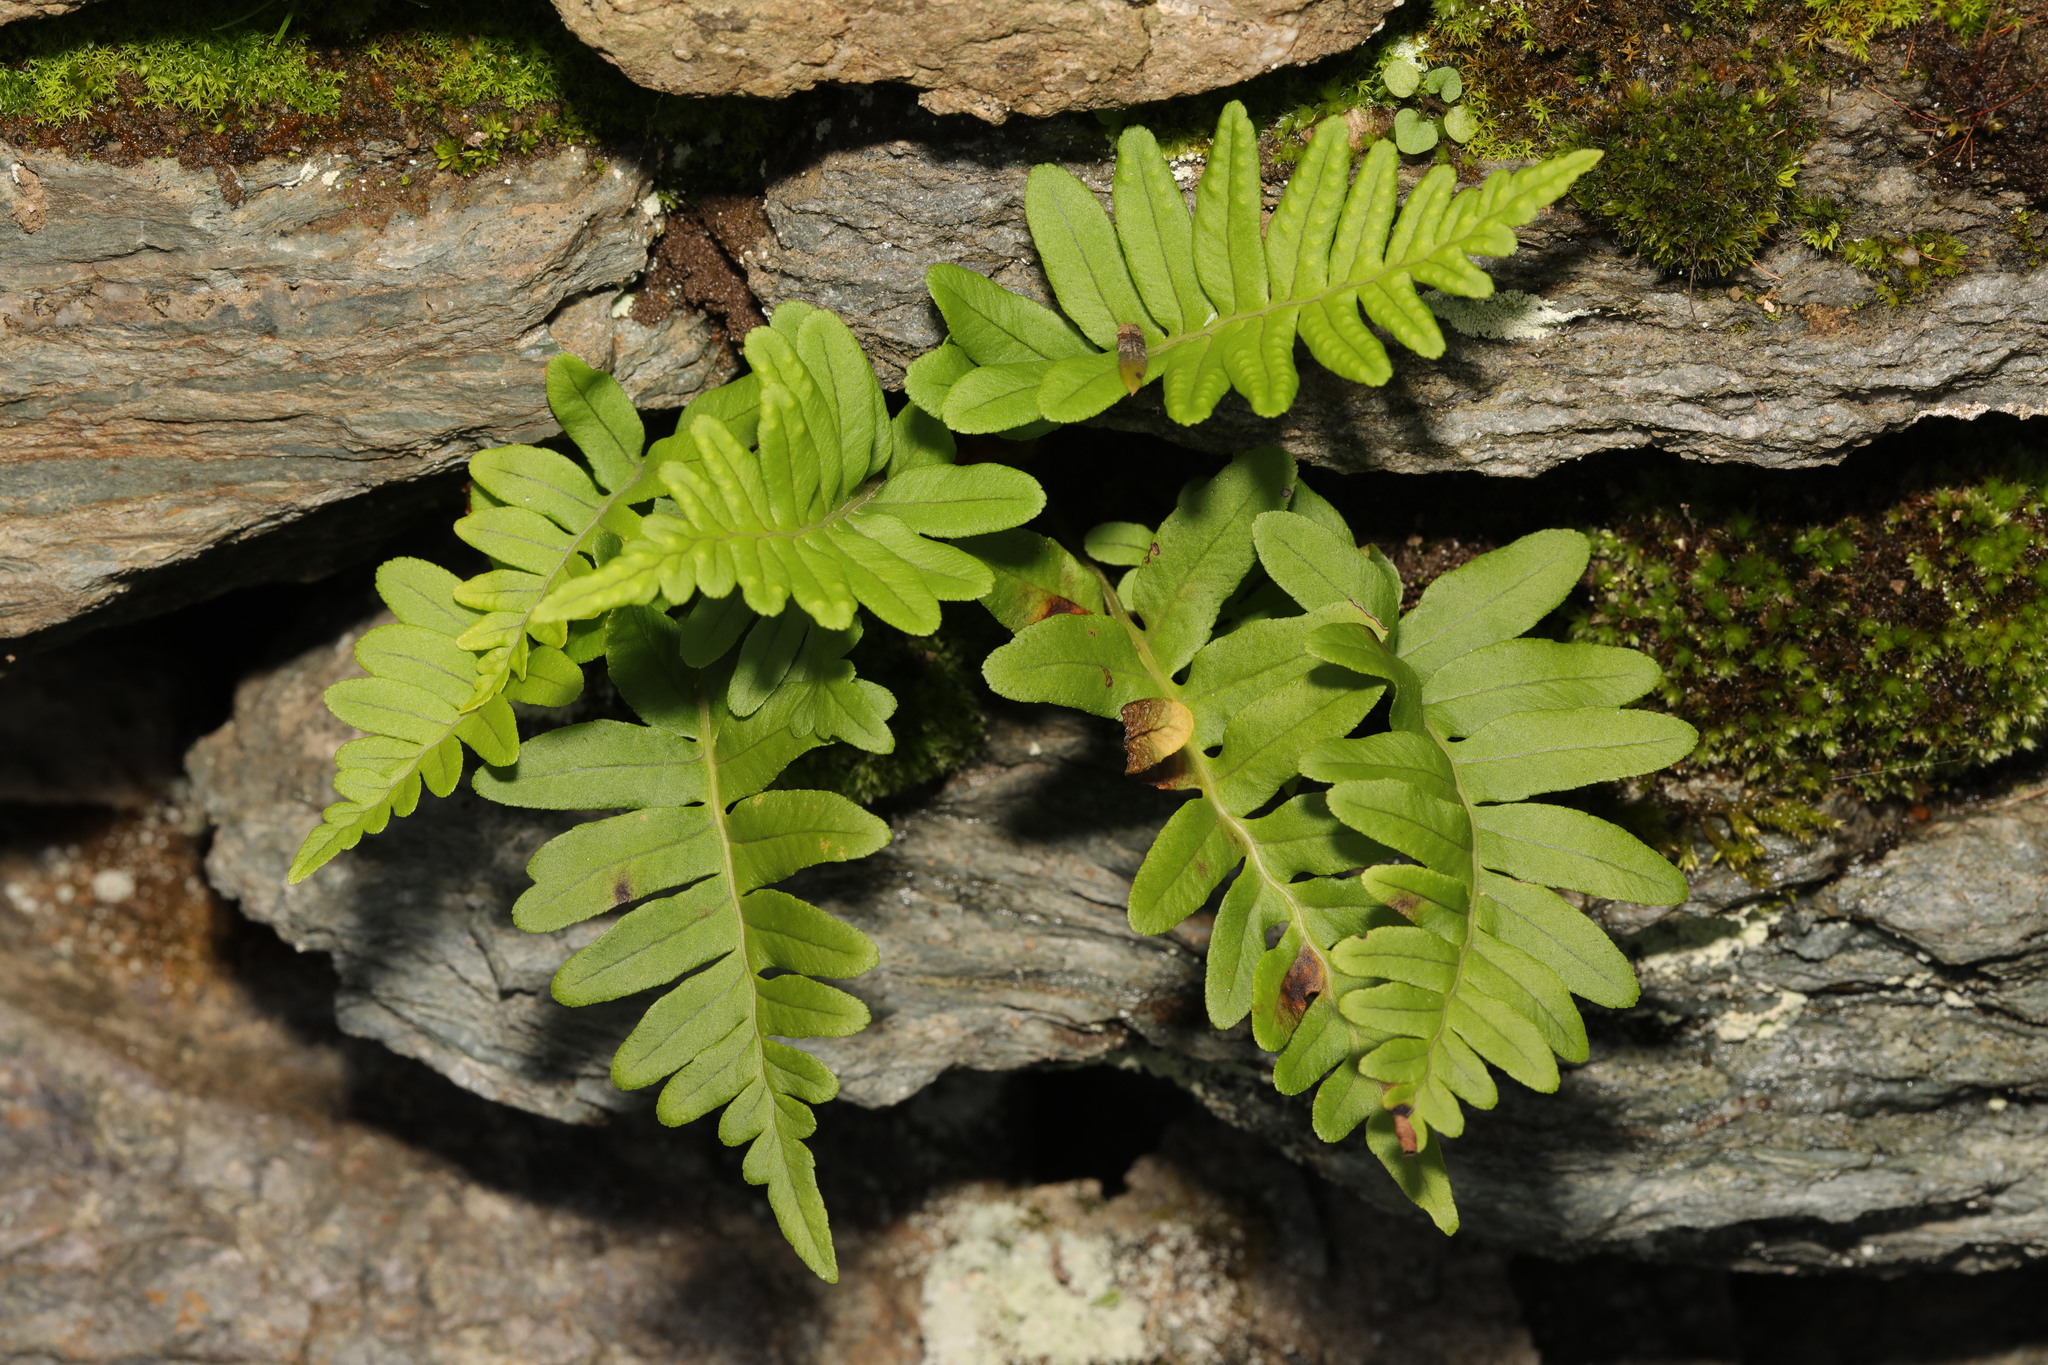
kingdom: Plantae
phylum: Tracheophyta
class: Polypodiopsida
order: Polypodiales
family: Polypodiaceae
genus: Polypodium
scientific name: Polypodium vulgare
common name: Common polypody
